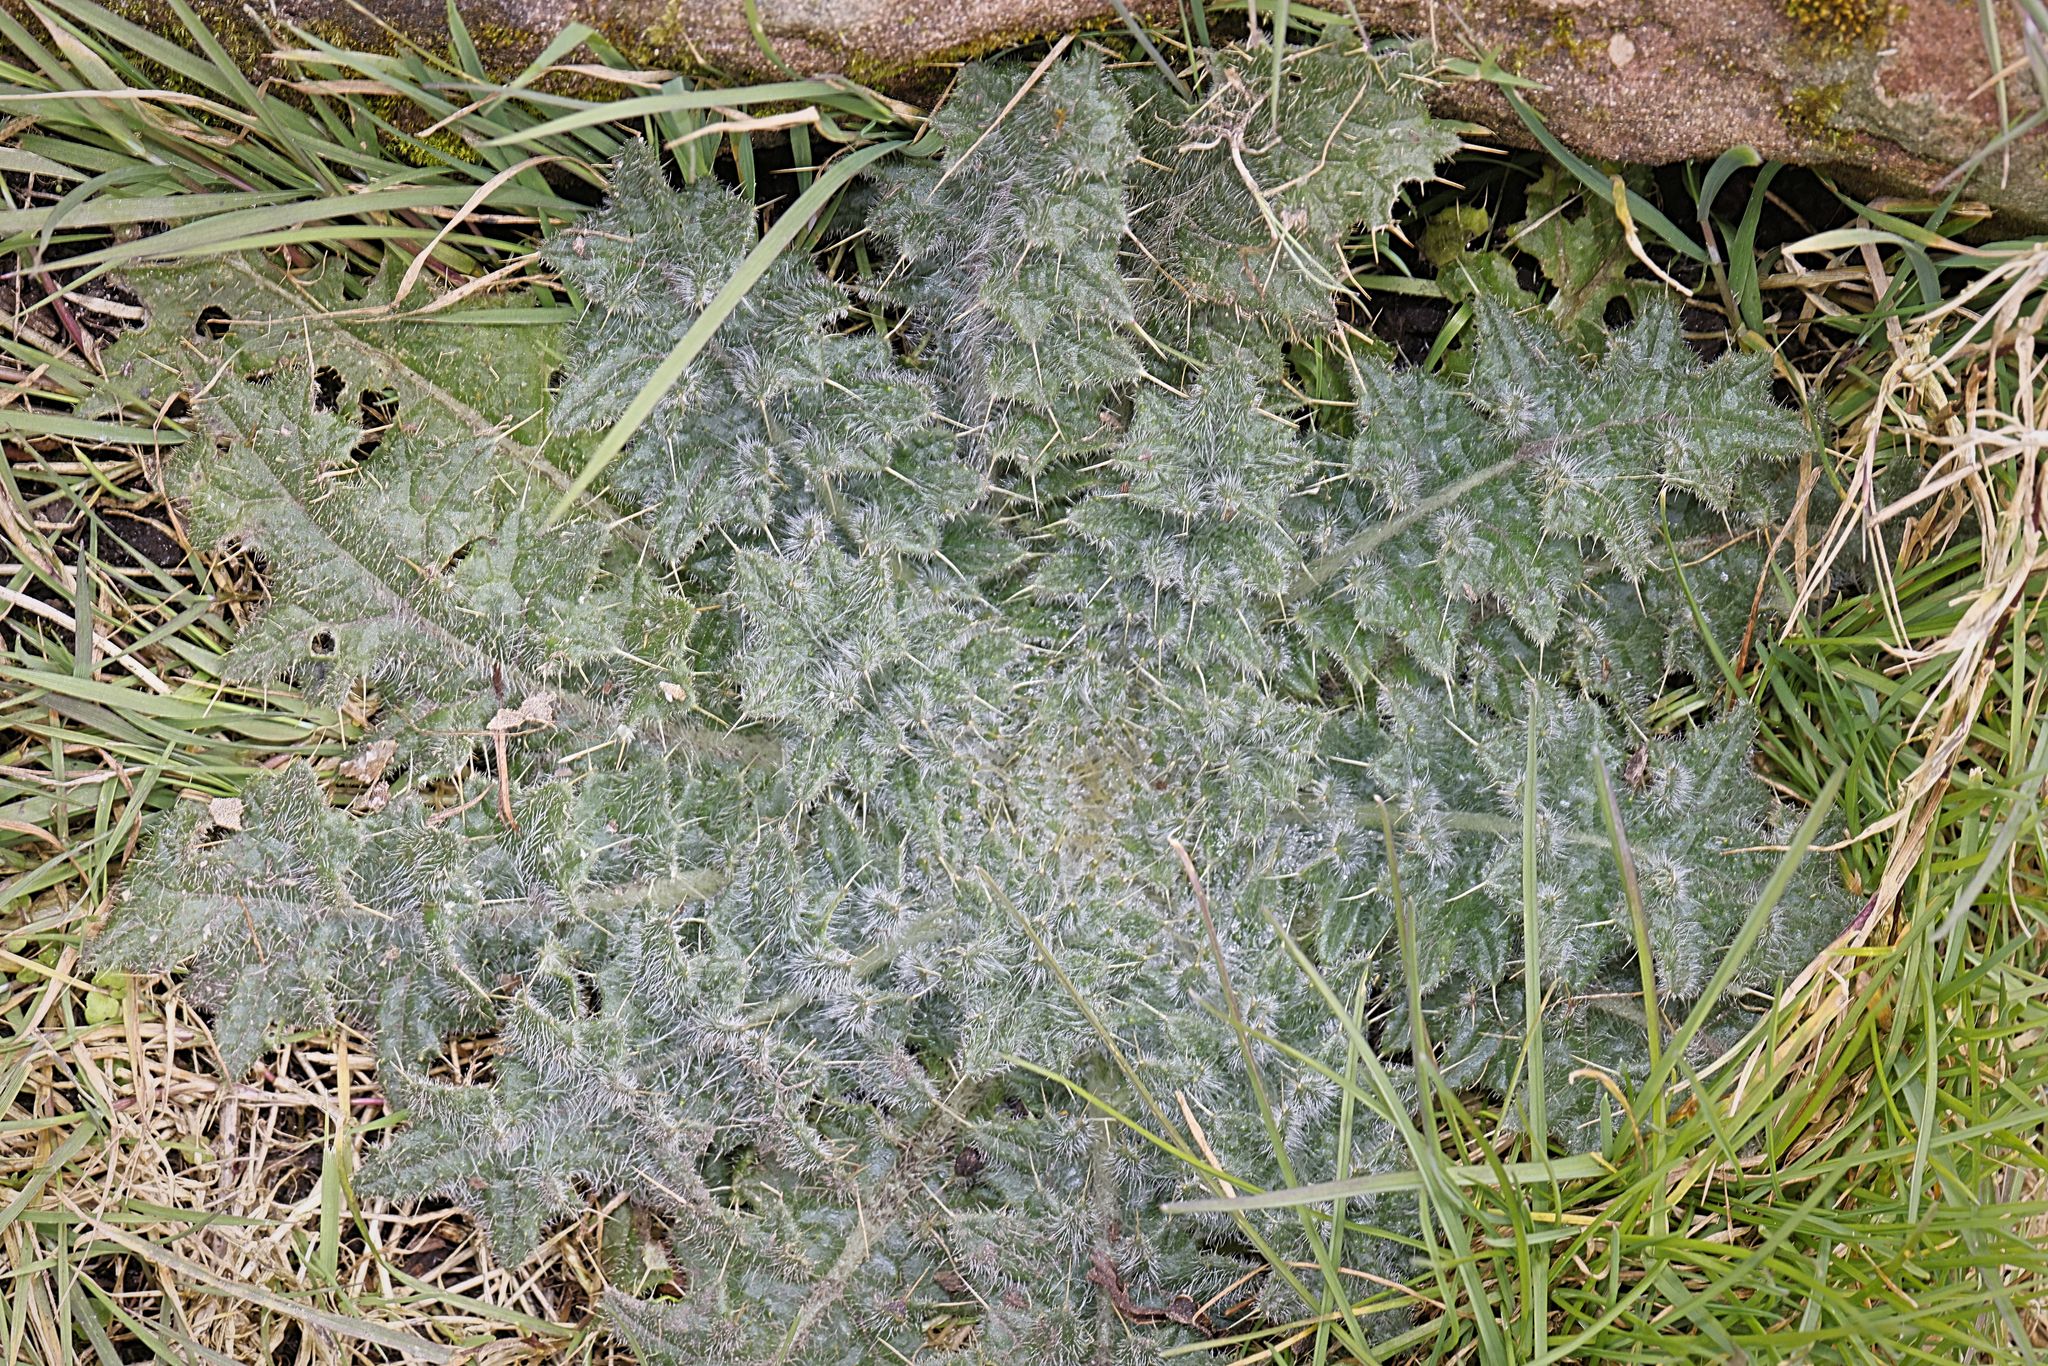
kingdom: Plantae
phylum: Tracheophyta
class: Magnoliopsida
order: Asterales
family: Asteraceae
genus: Cirsium
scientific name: Cirsium vulgare
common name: Bull thistle
